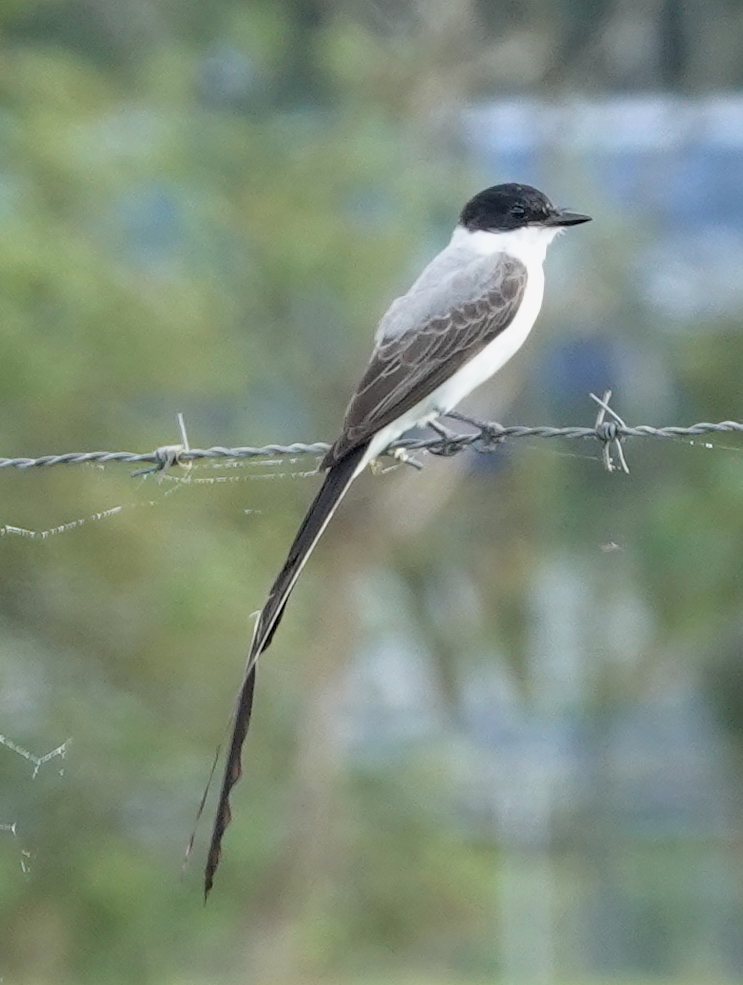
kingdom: Animalia
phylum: Chordata
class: Aves
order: Passeriformes
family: Tyrannidae
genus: Tyrannus
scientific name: Tyrannus savana
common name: Fork-tailed flycatcher
